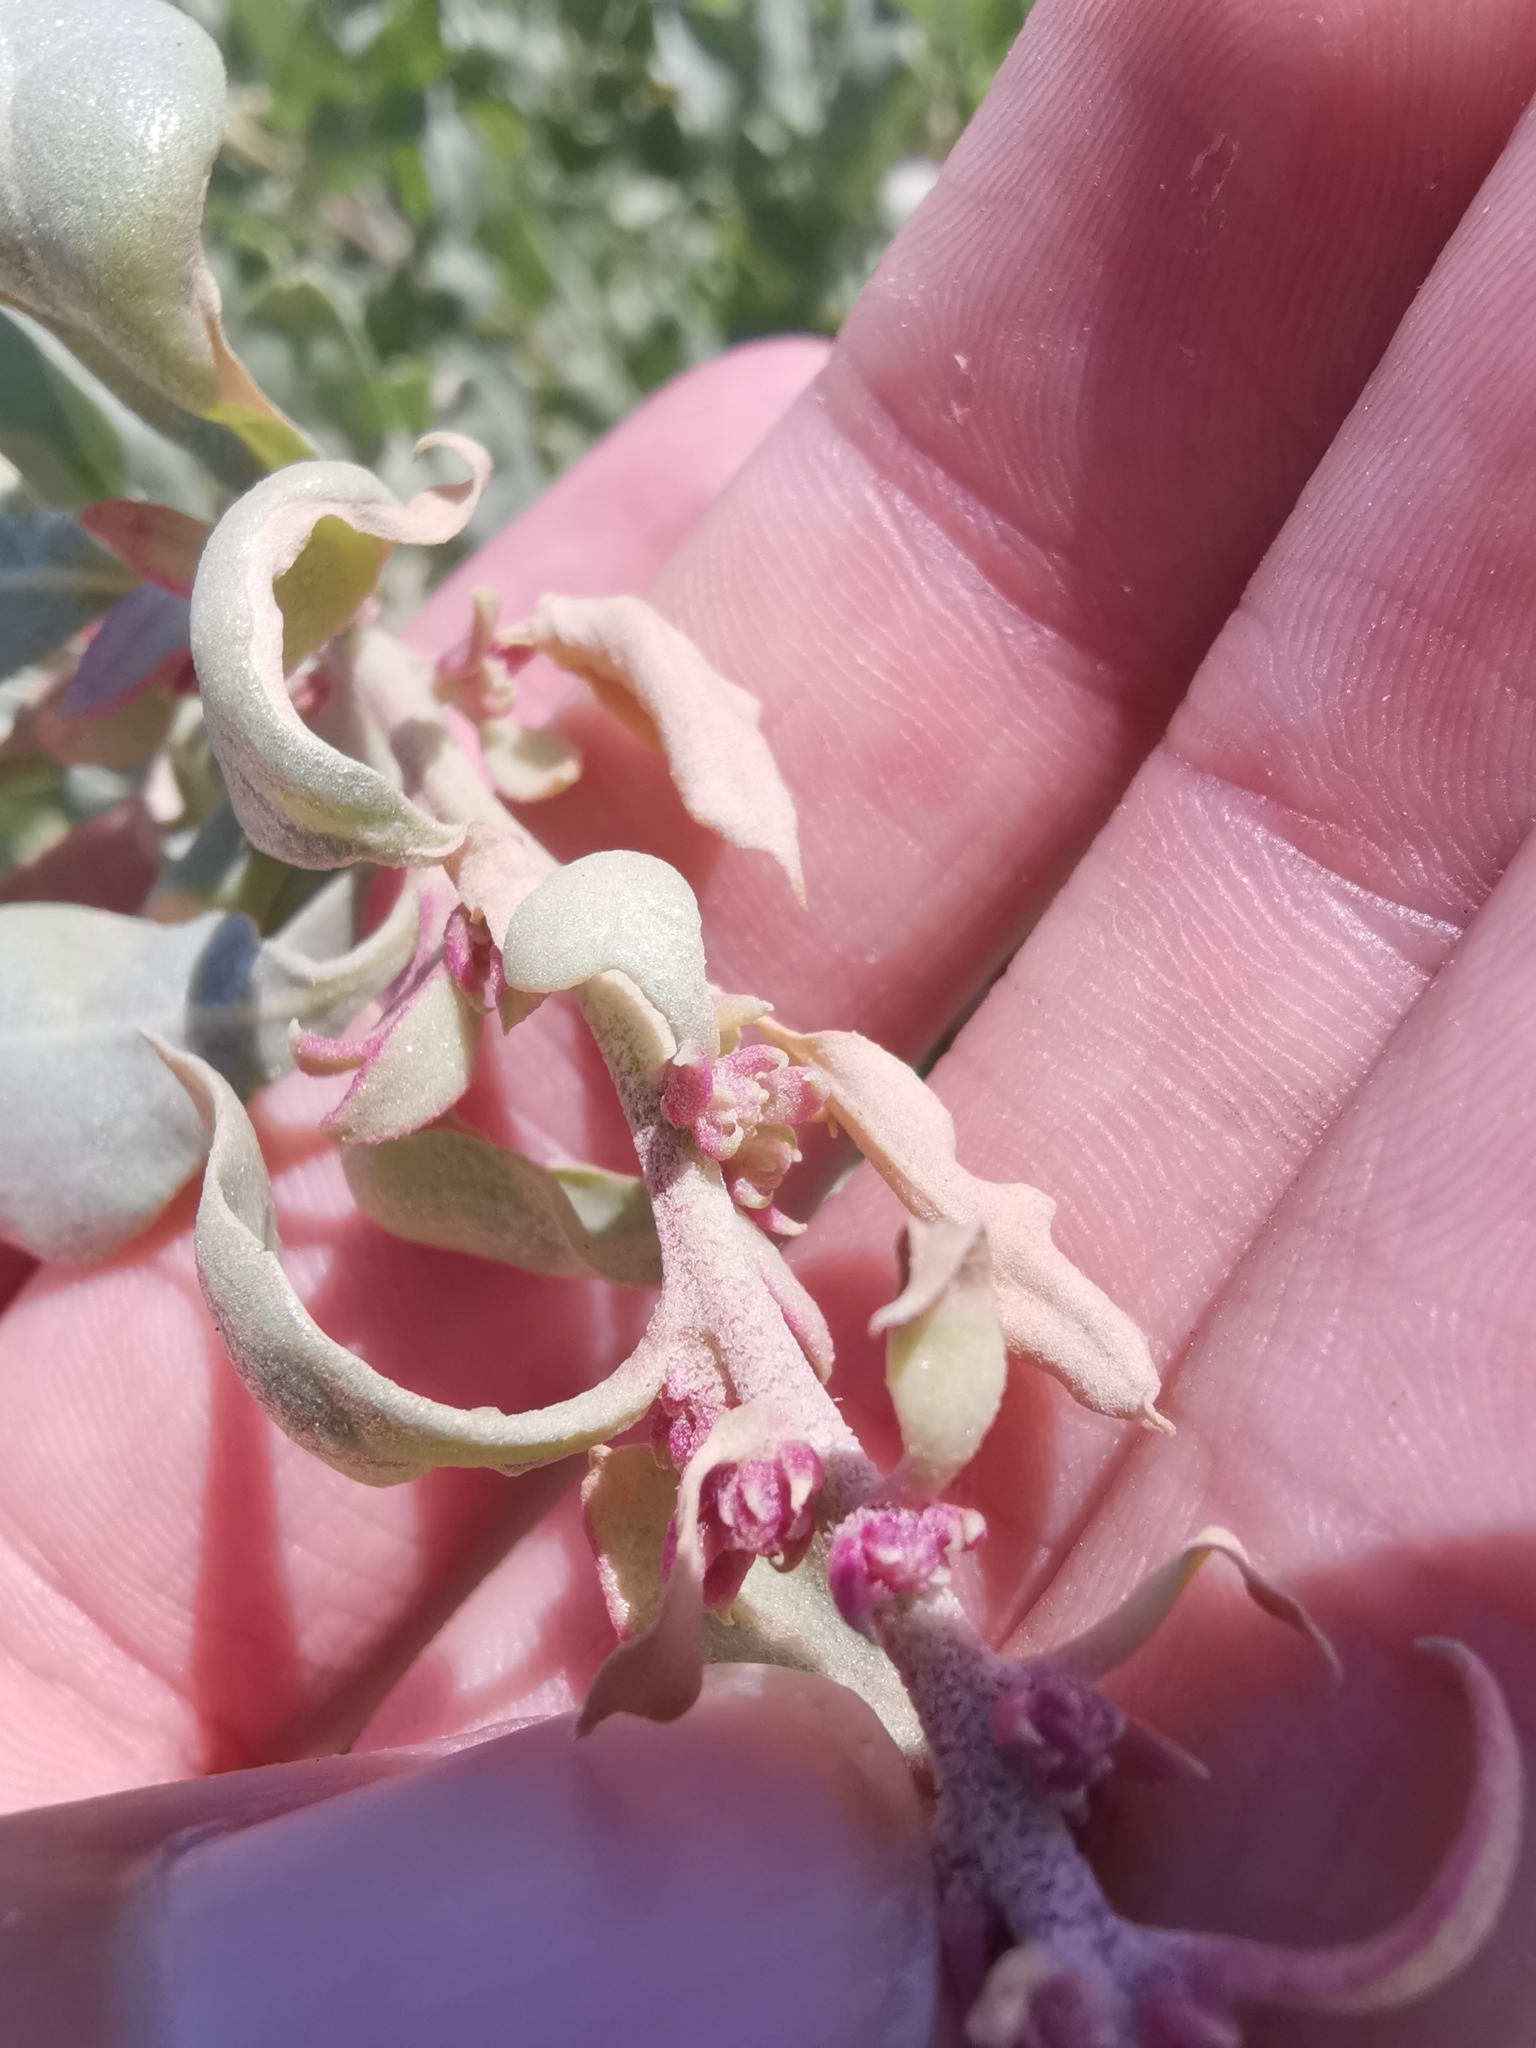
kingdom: Plantae
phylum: Tracheophyta
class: Magnoliopsida
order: Caryophyllales
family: Amaranthaceae
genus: Atriplex
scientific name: Atriplex halimus
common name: Shrubby orache
